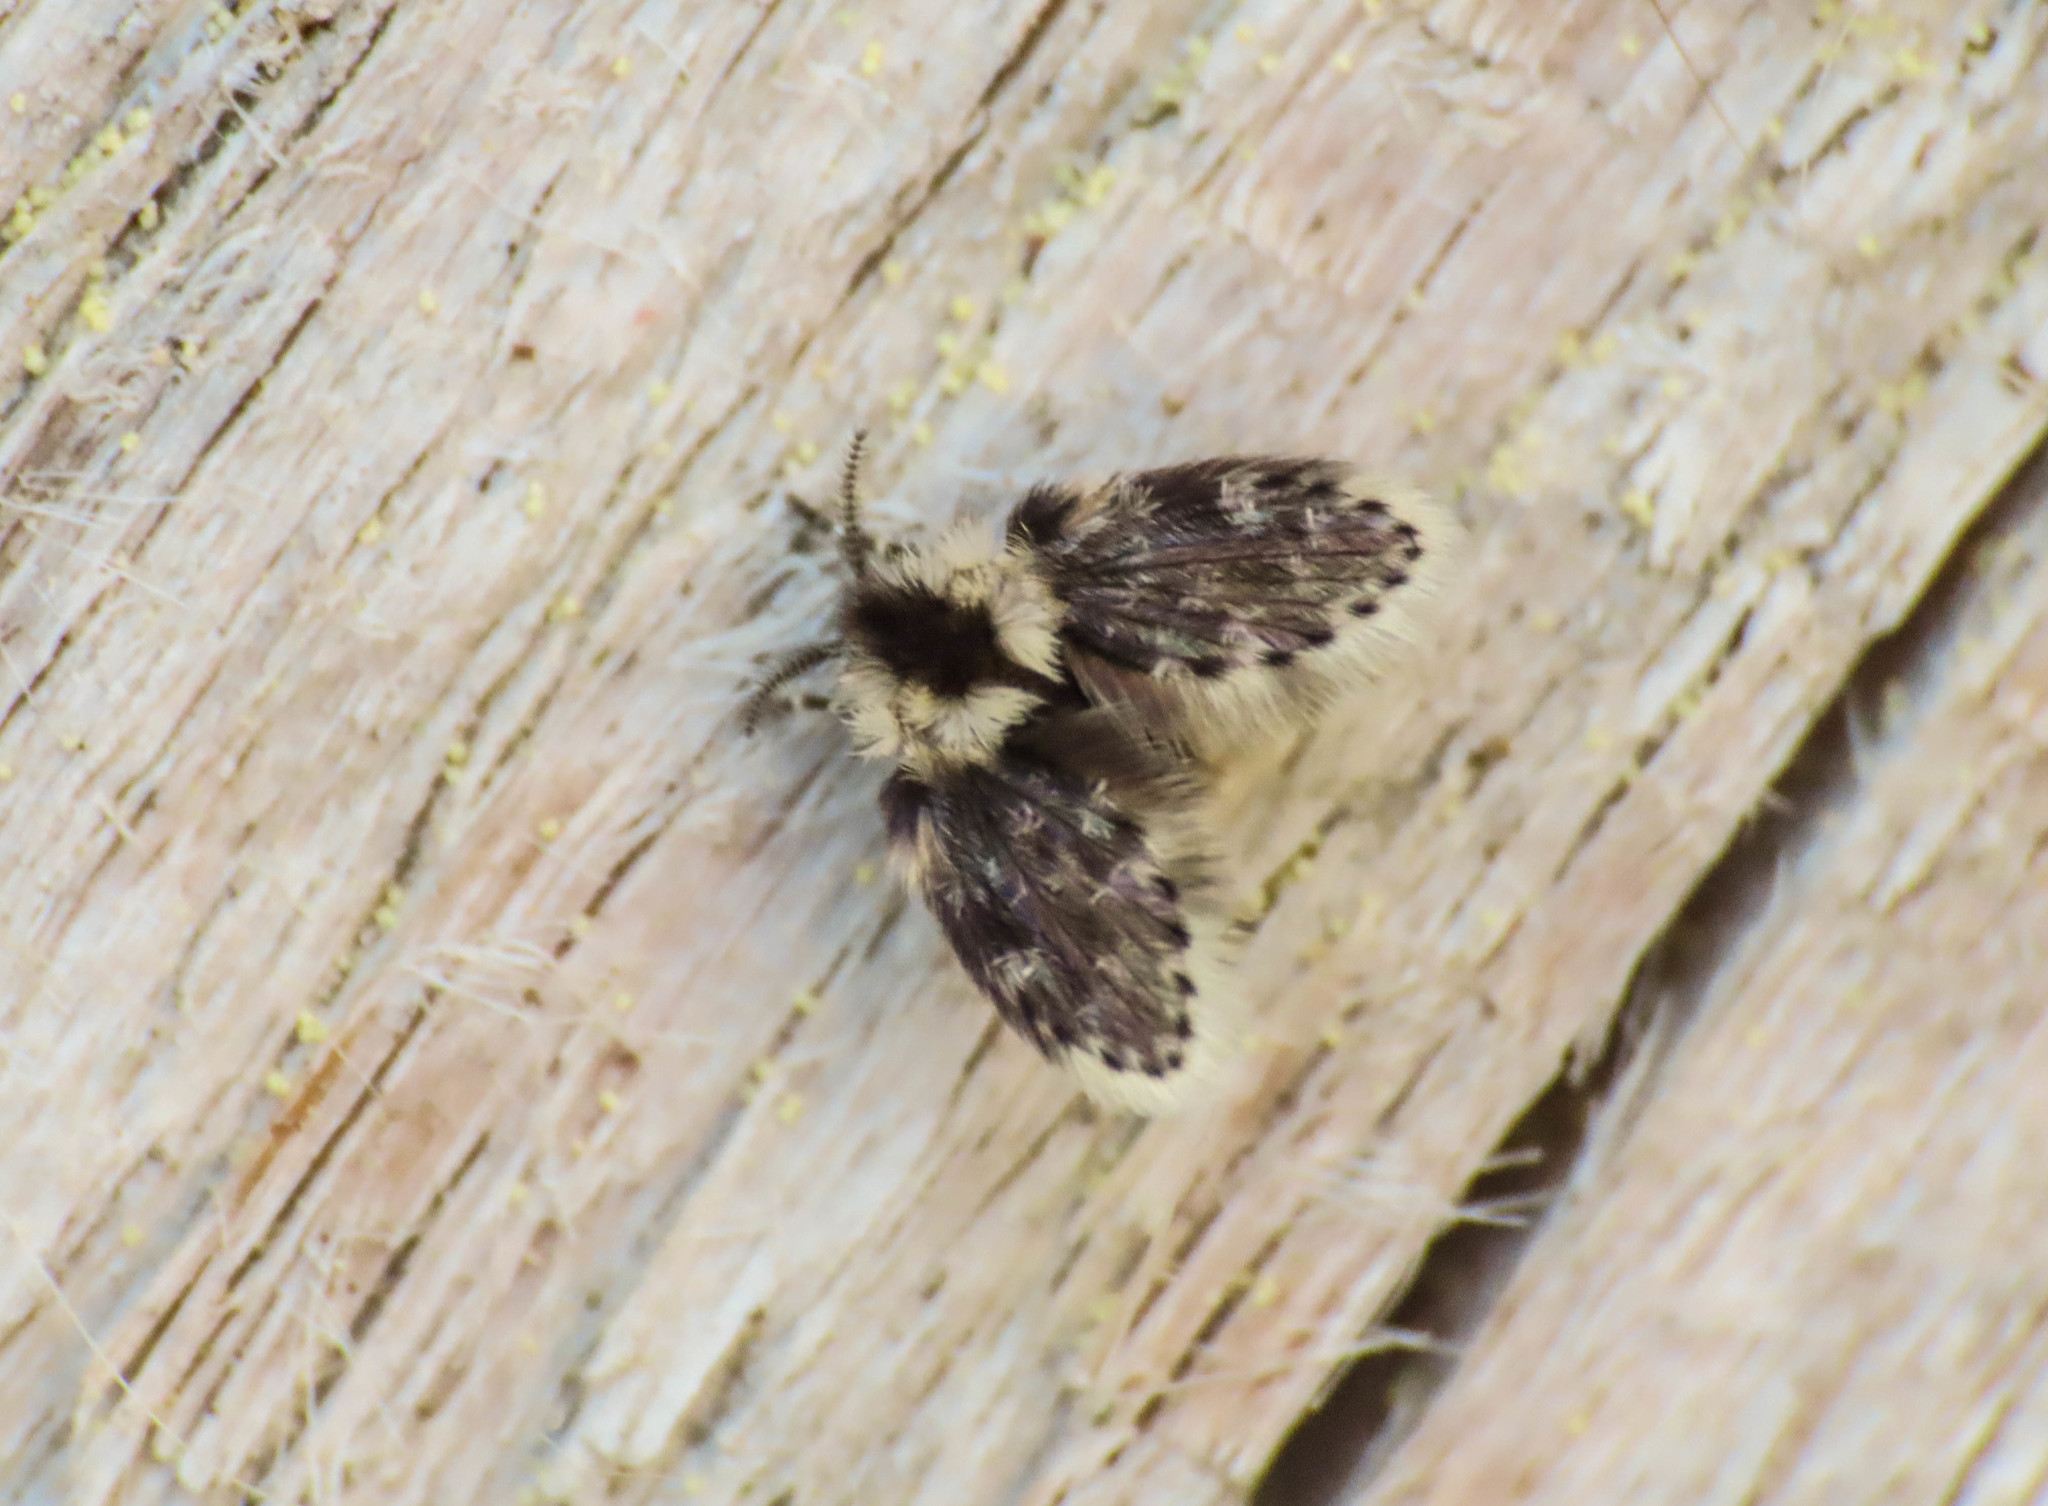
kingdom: Animalia
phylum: Arthropoda
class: Insecta
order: Diptera
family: Psychodidae
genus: Lepiseodina
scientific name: Lepiseodina
